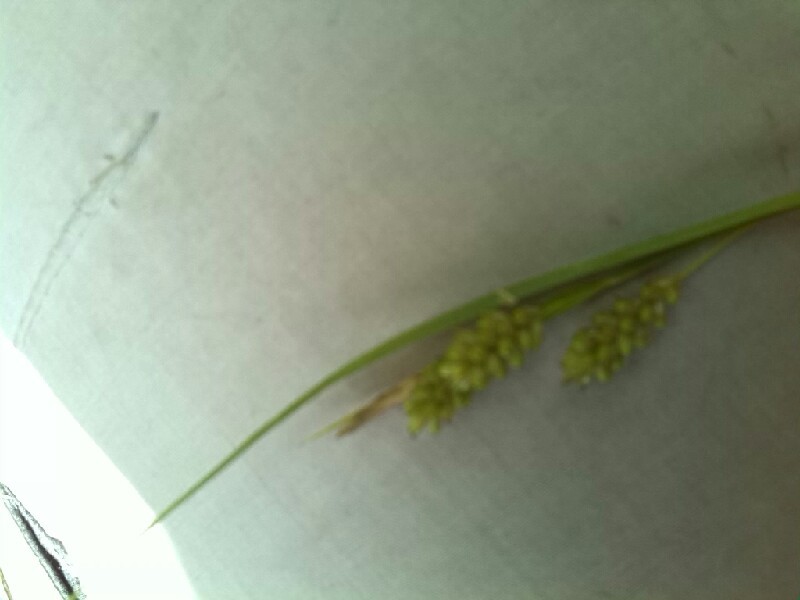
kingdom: Plantae
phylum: Tracheophyta
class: Liliopsida
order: Poales
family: Cyperaceae
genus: Carex
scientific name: Carex pallescens
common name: Pale sedge
